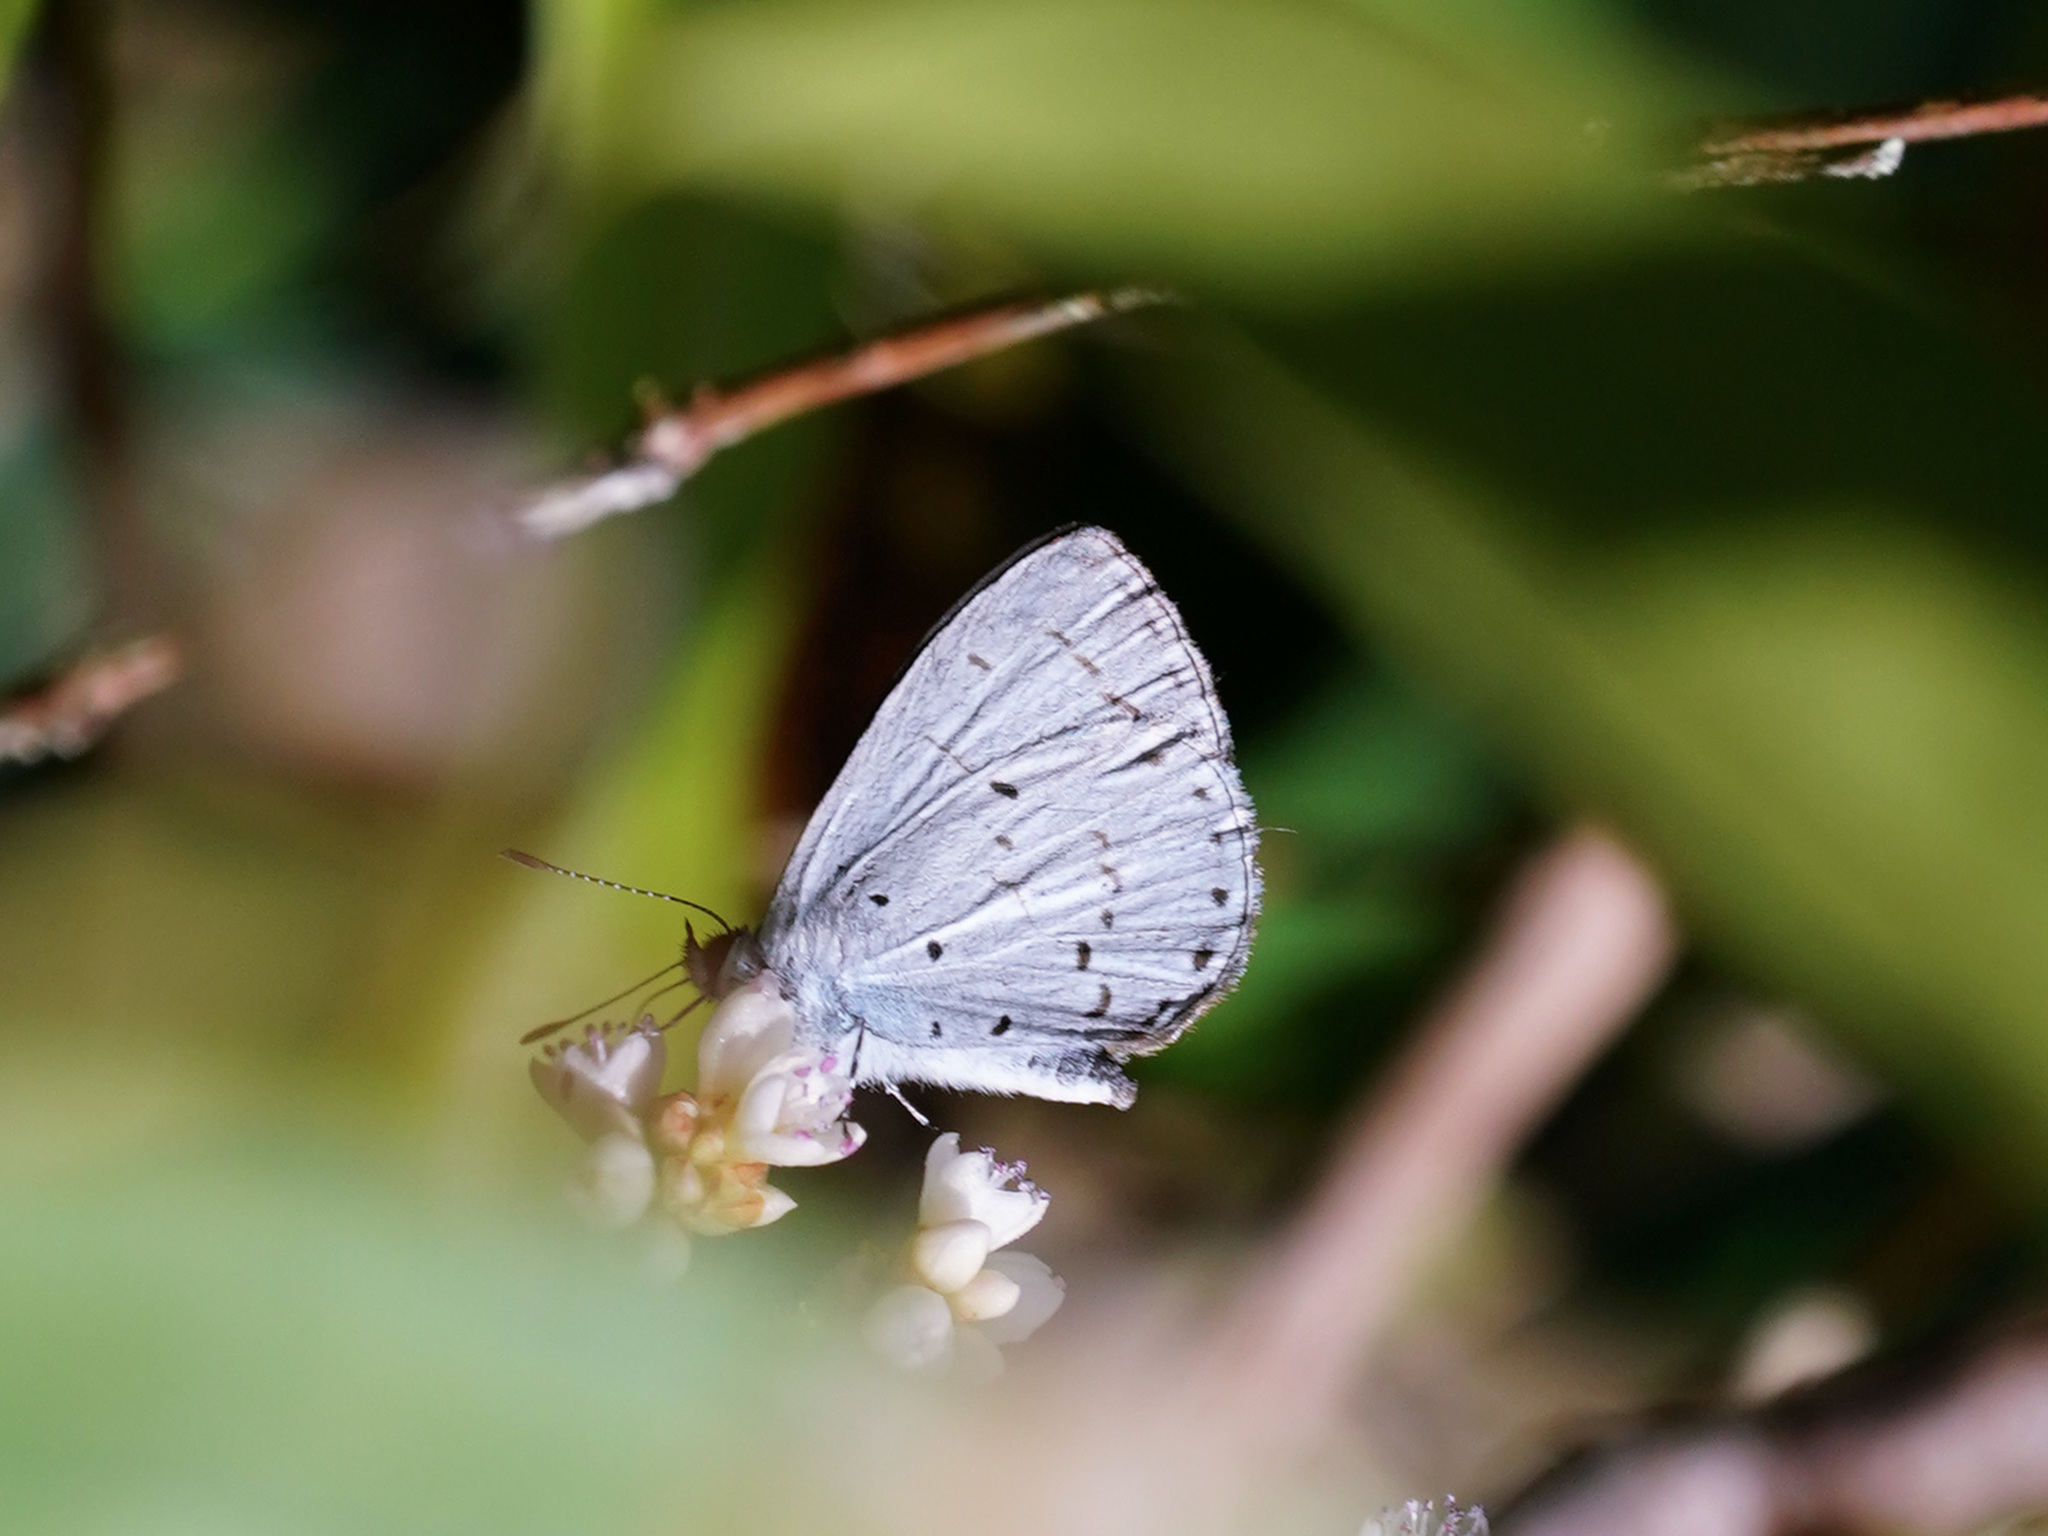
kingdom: Animalia
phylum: Arthropoda
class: Insecta
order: Lepidoptera
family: Lycaenidae
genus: Udara
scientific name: Udara camenae
